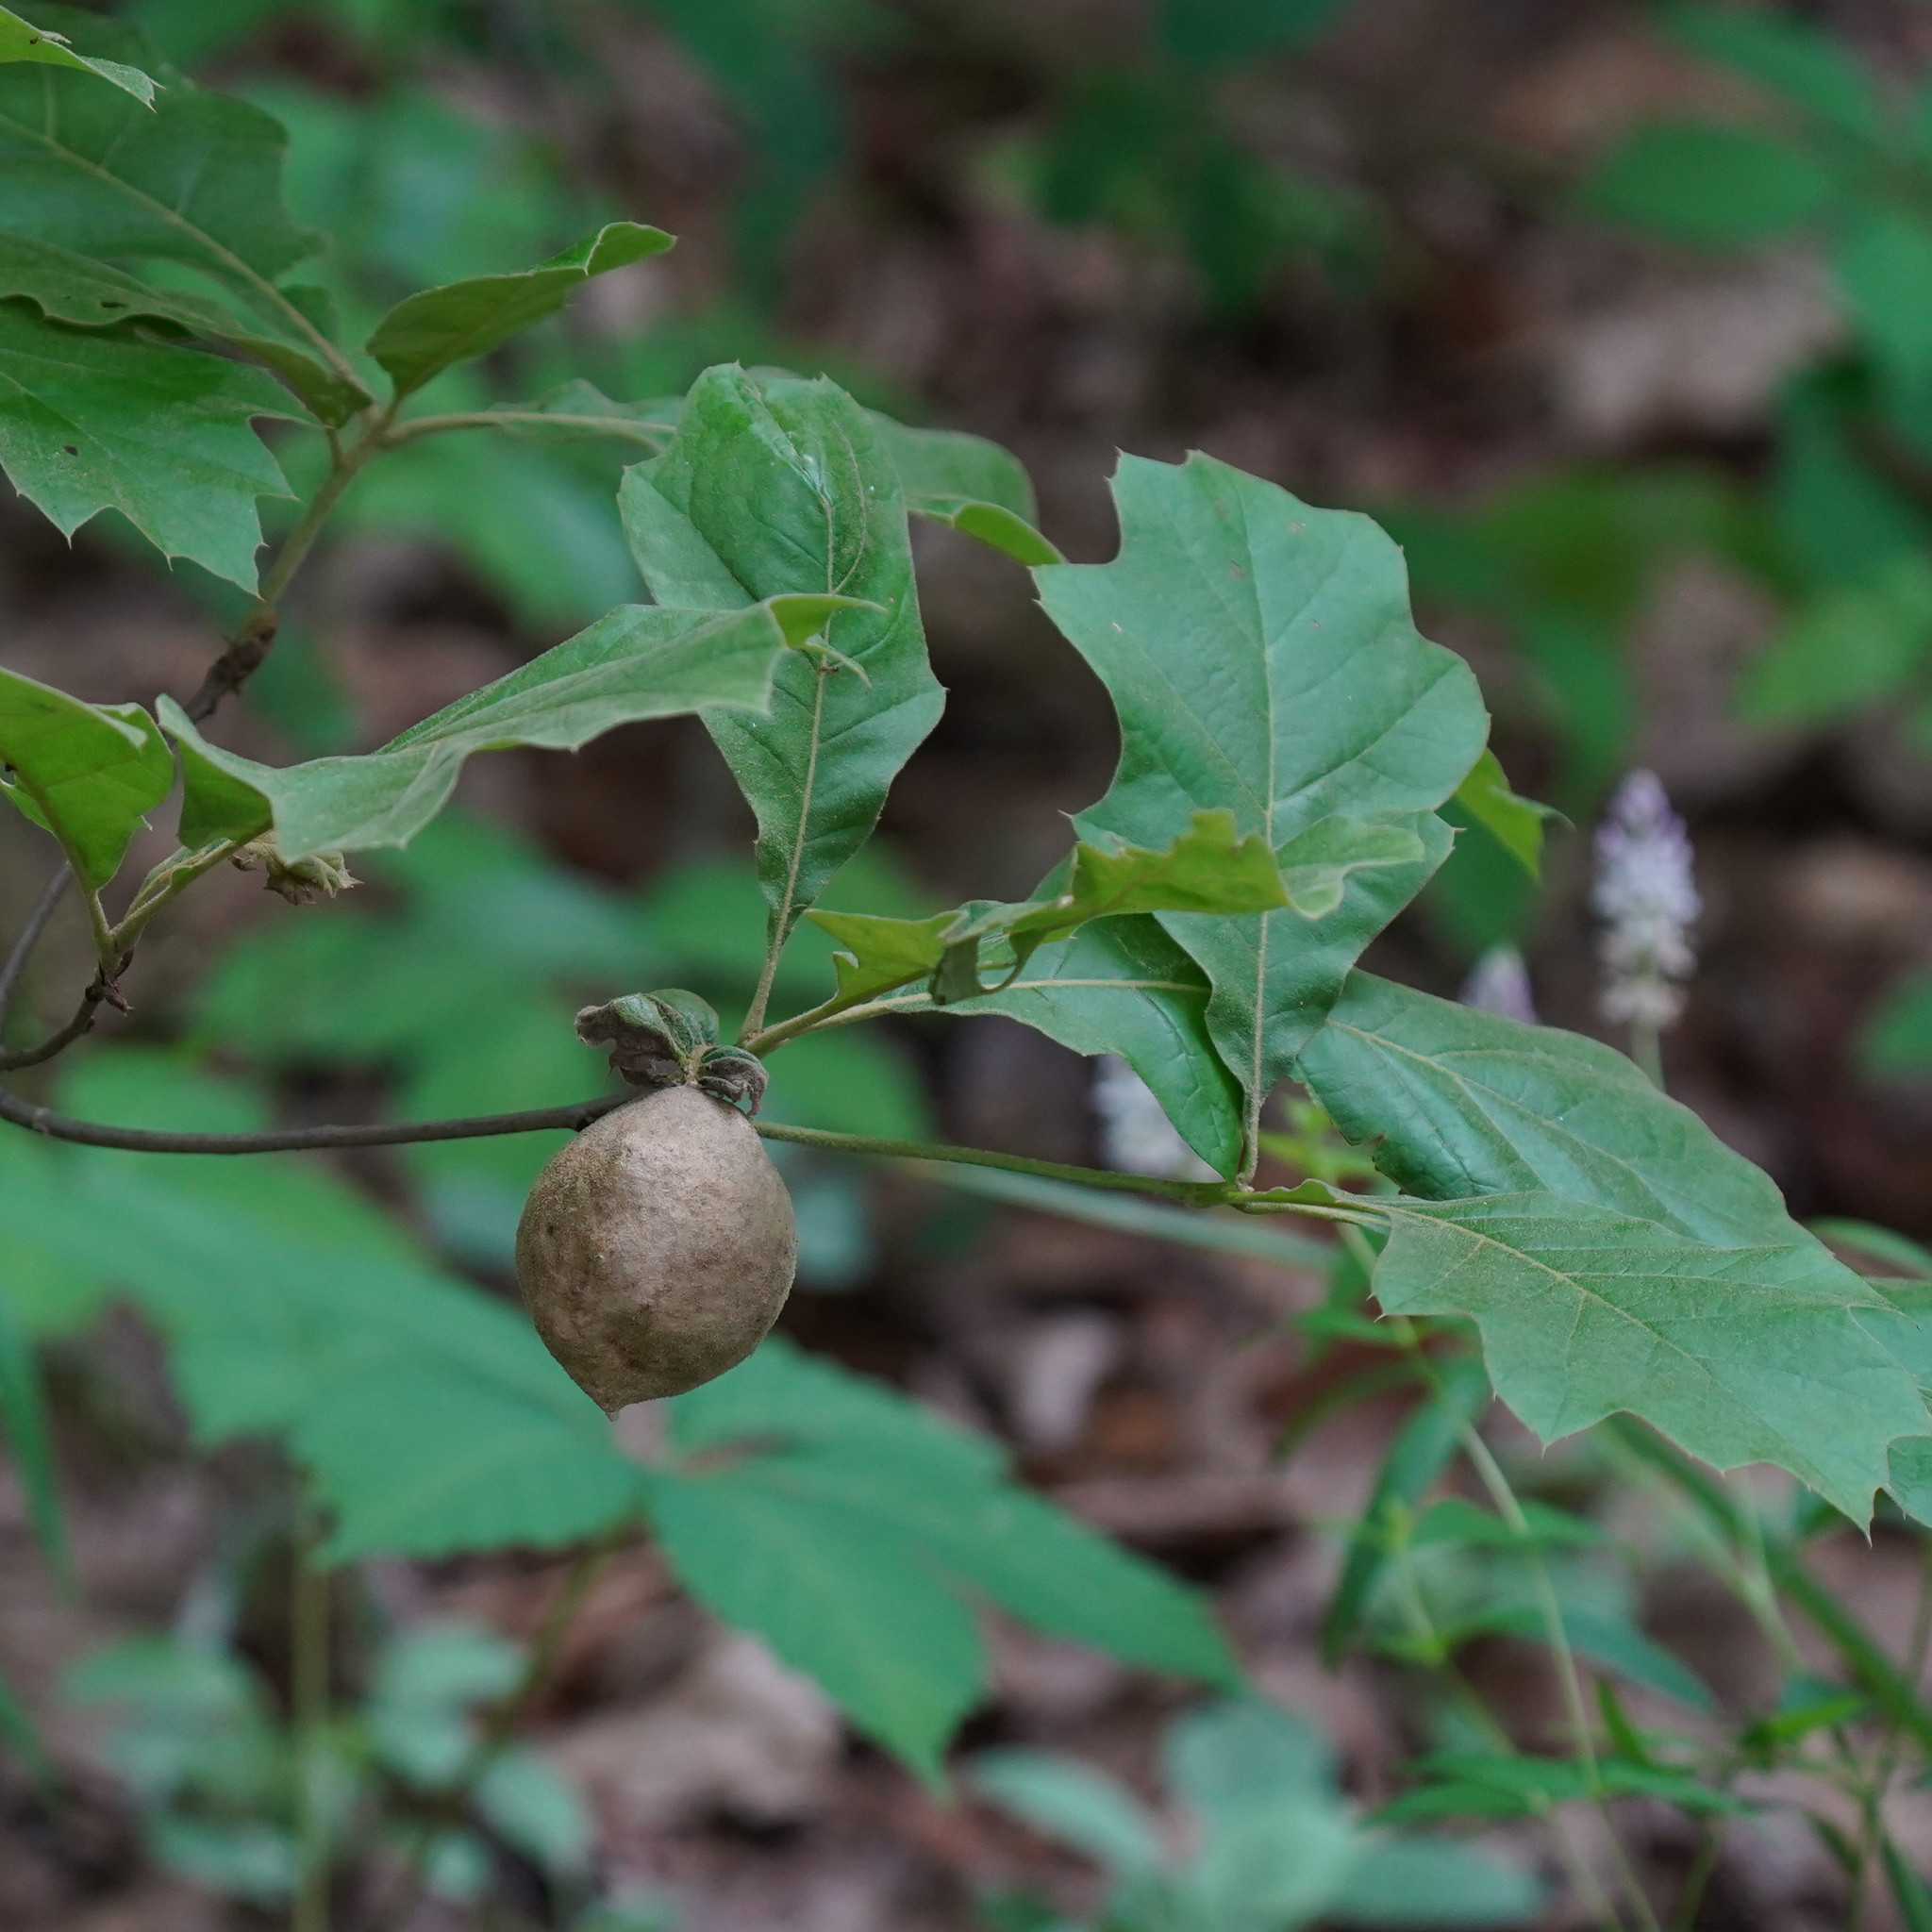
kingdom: Animalia
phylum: Arthropoda
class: Insecta
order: Hymenoptera
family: Cynipidae
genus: Amphibolips
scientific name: Amphibolips
